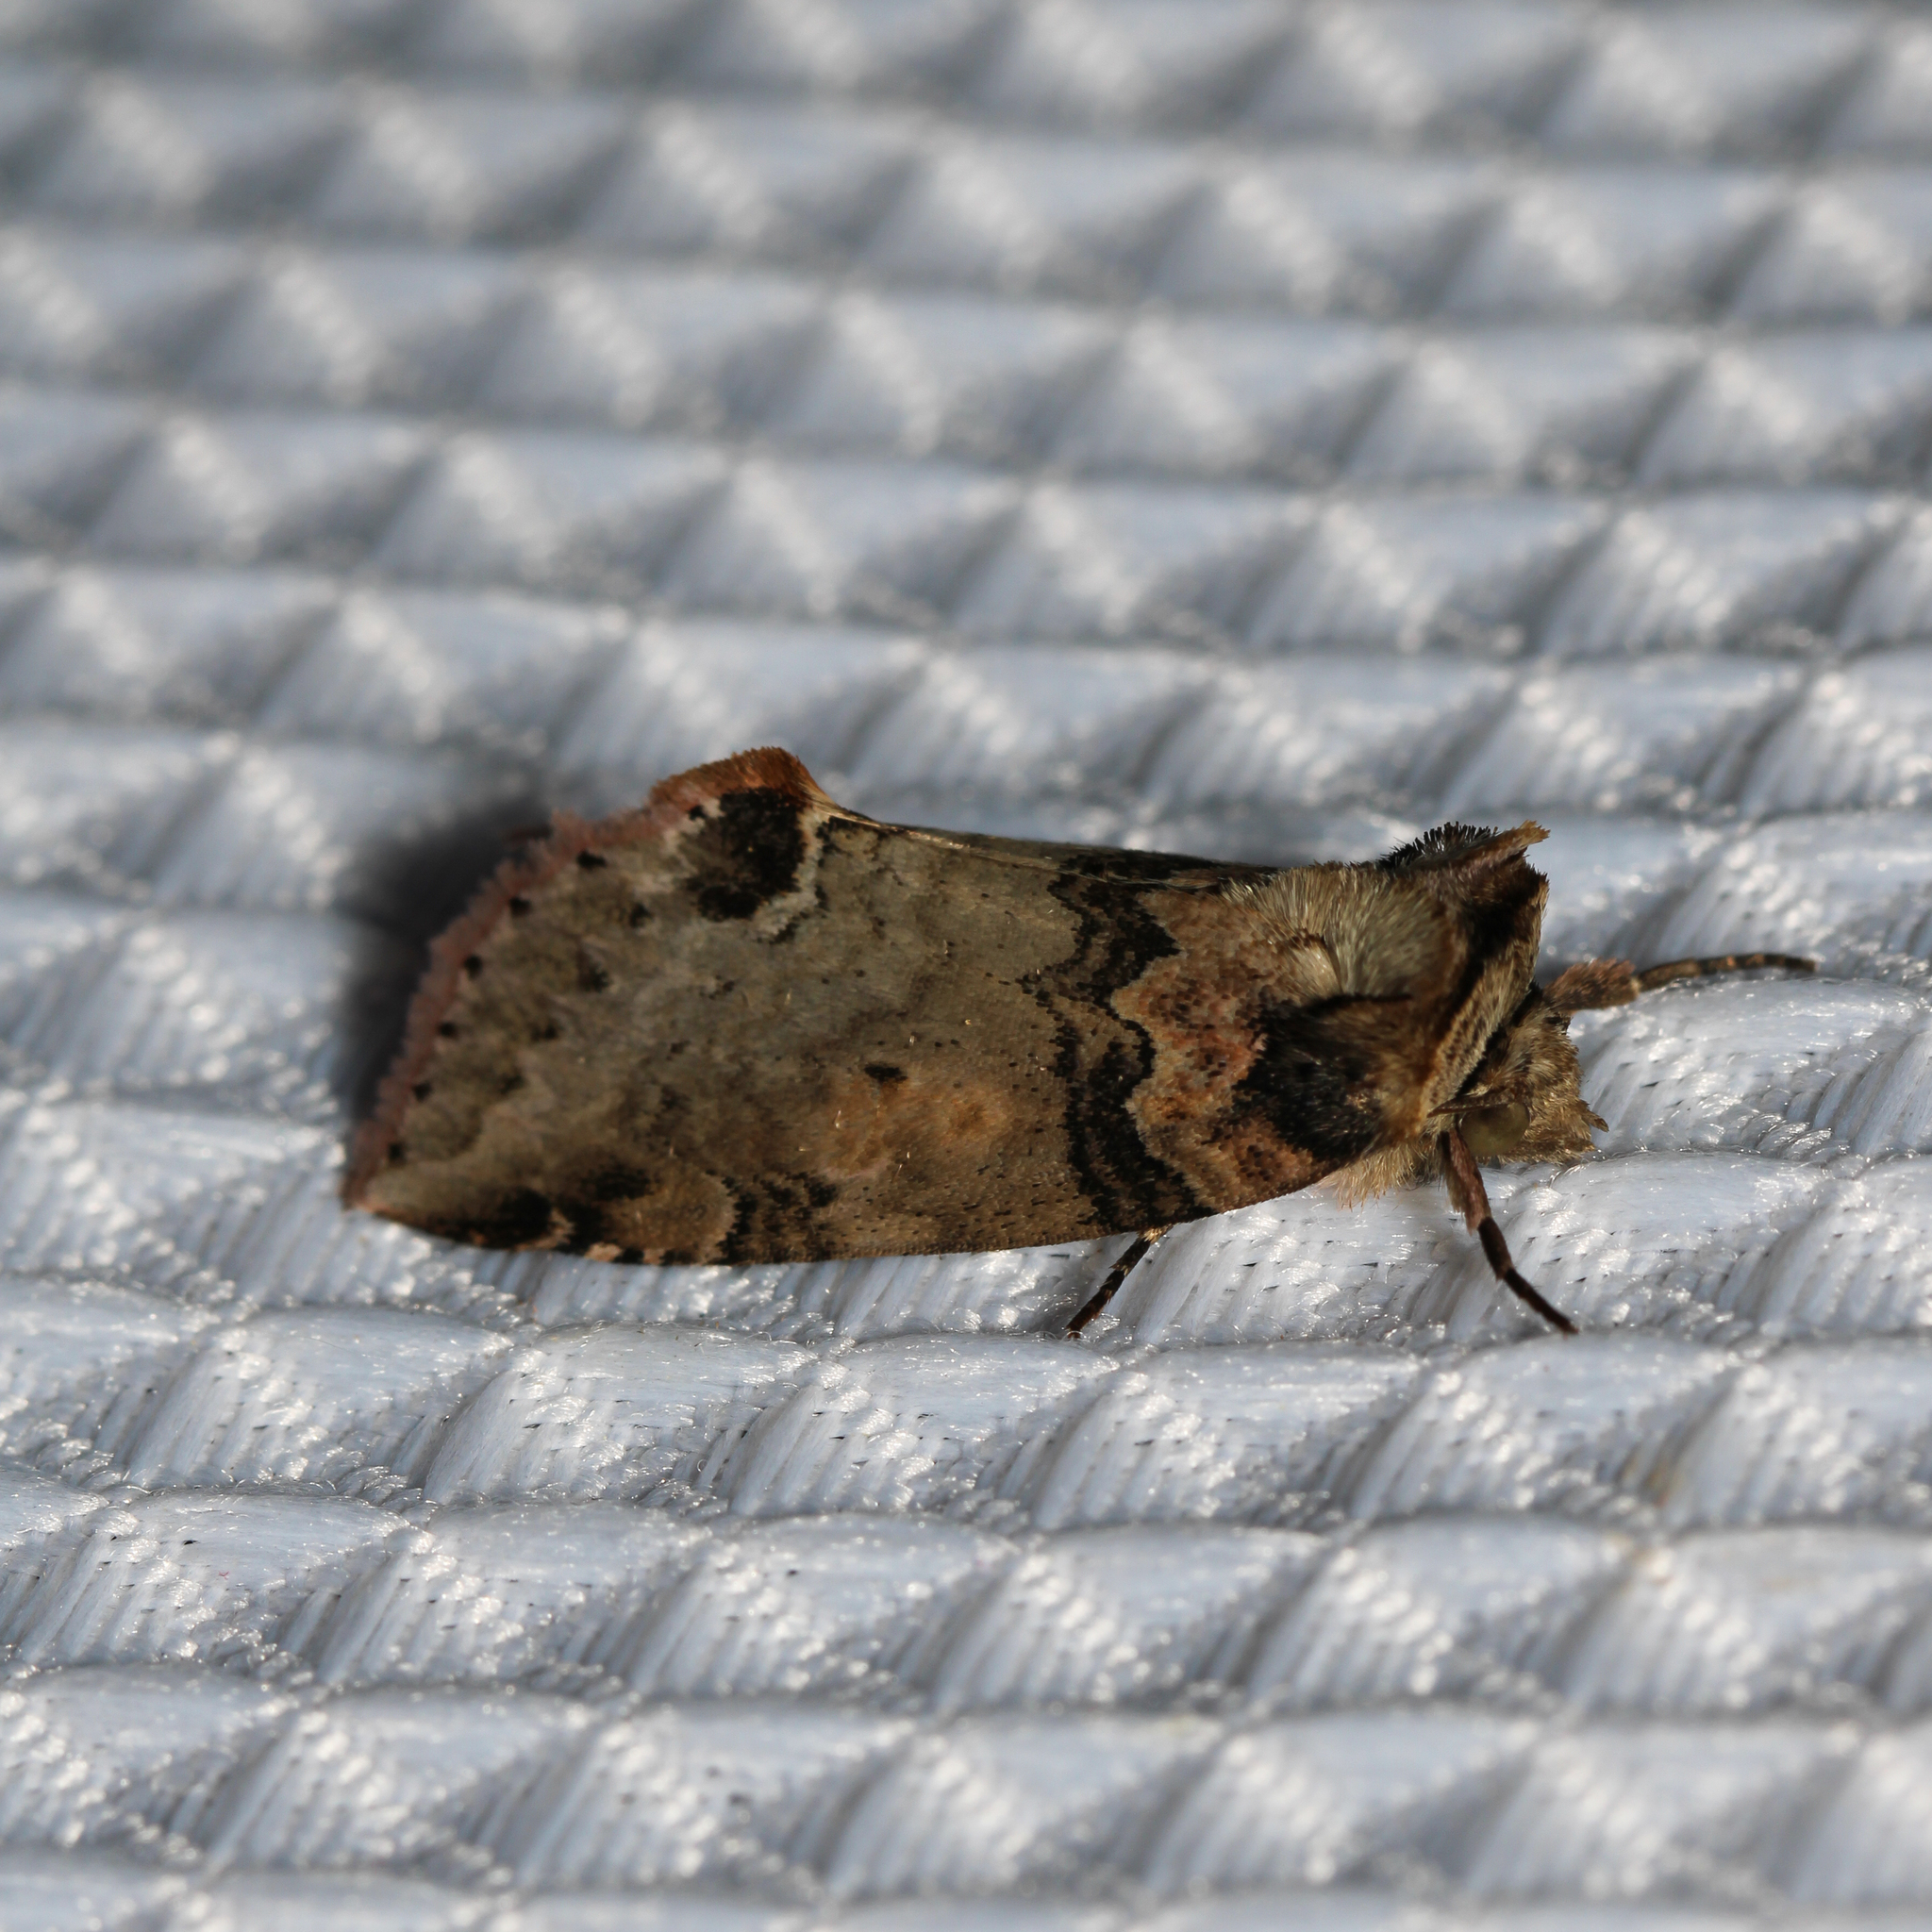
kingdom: Animalia
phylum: Arthropoda
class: Insecta
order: Lepidoptera
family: Drepanidae
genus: Pseudothyatira
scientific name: Pseudothyatira cymatophoroides
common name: Tufted thyatirid moth
